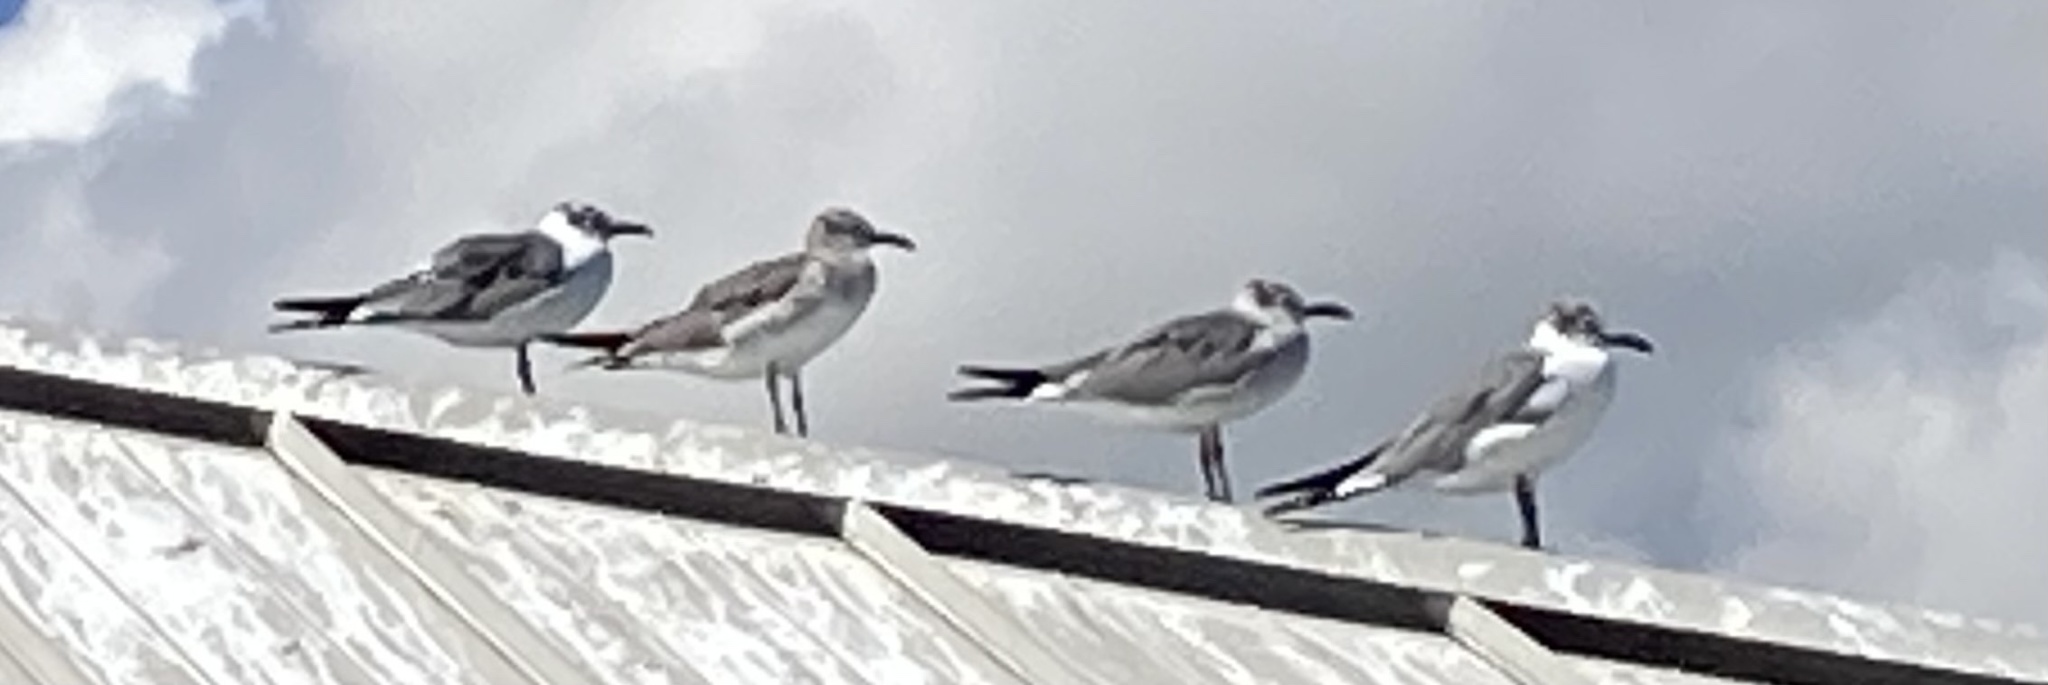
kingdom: Animalia
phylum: Chordata
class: Aves
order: Charadriiformes
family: Laridae
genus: Leucophaeus
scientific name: Leucophaeus atricilla
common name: Laughing gull
